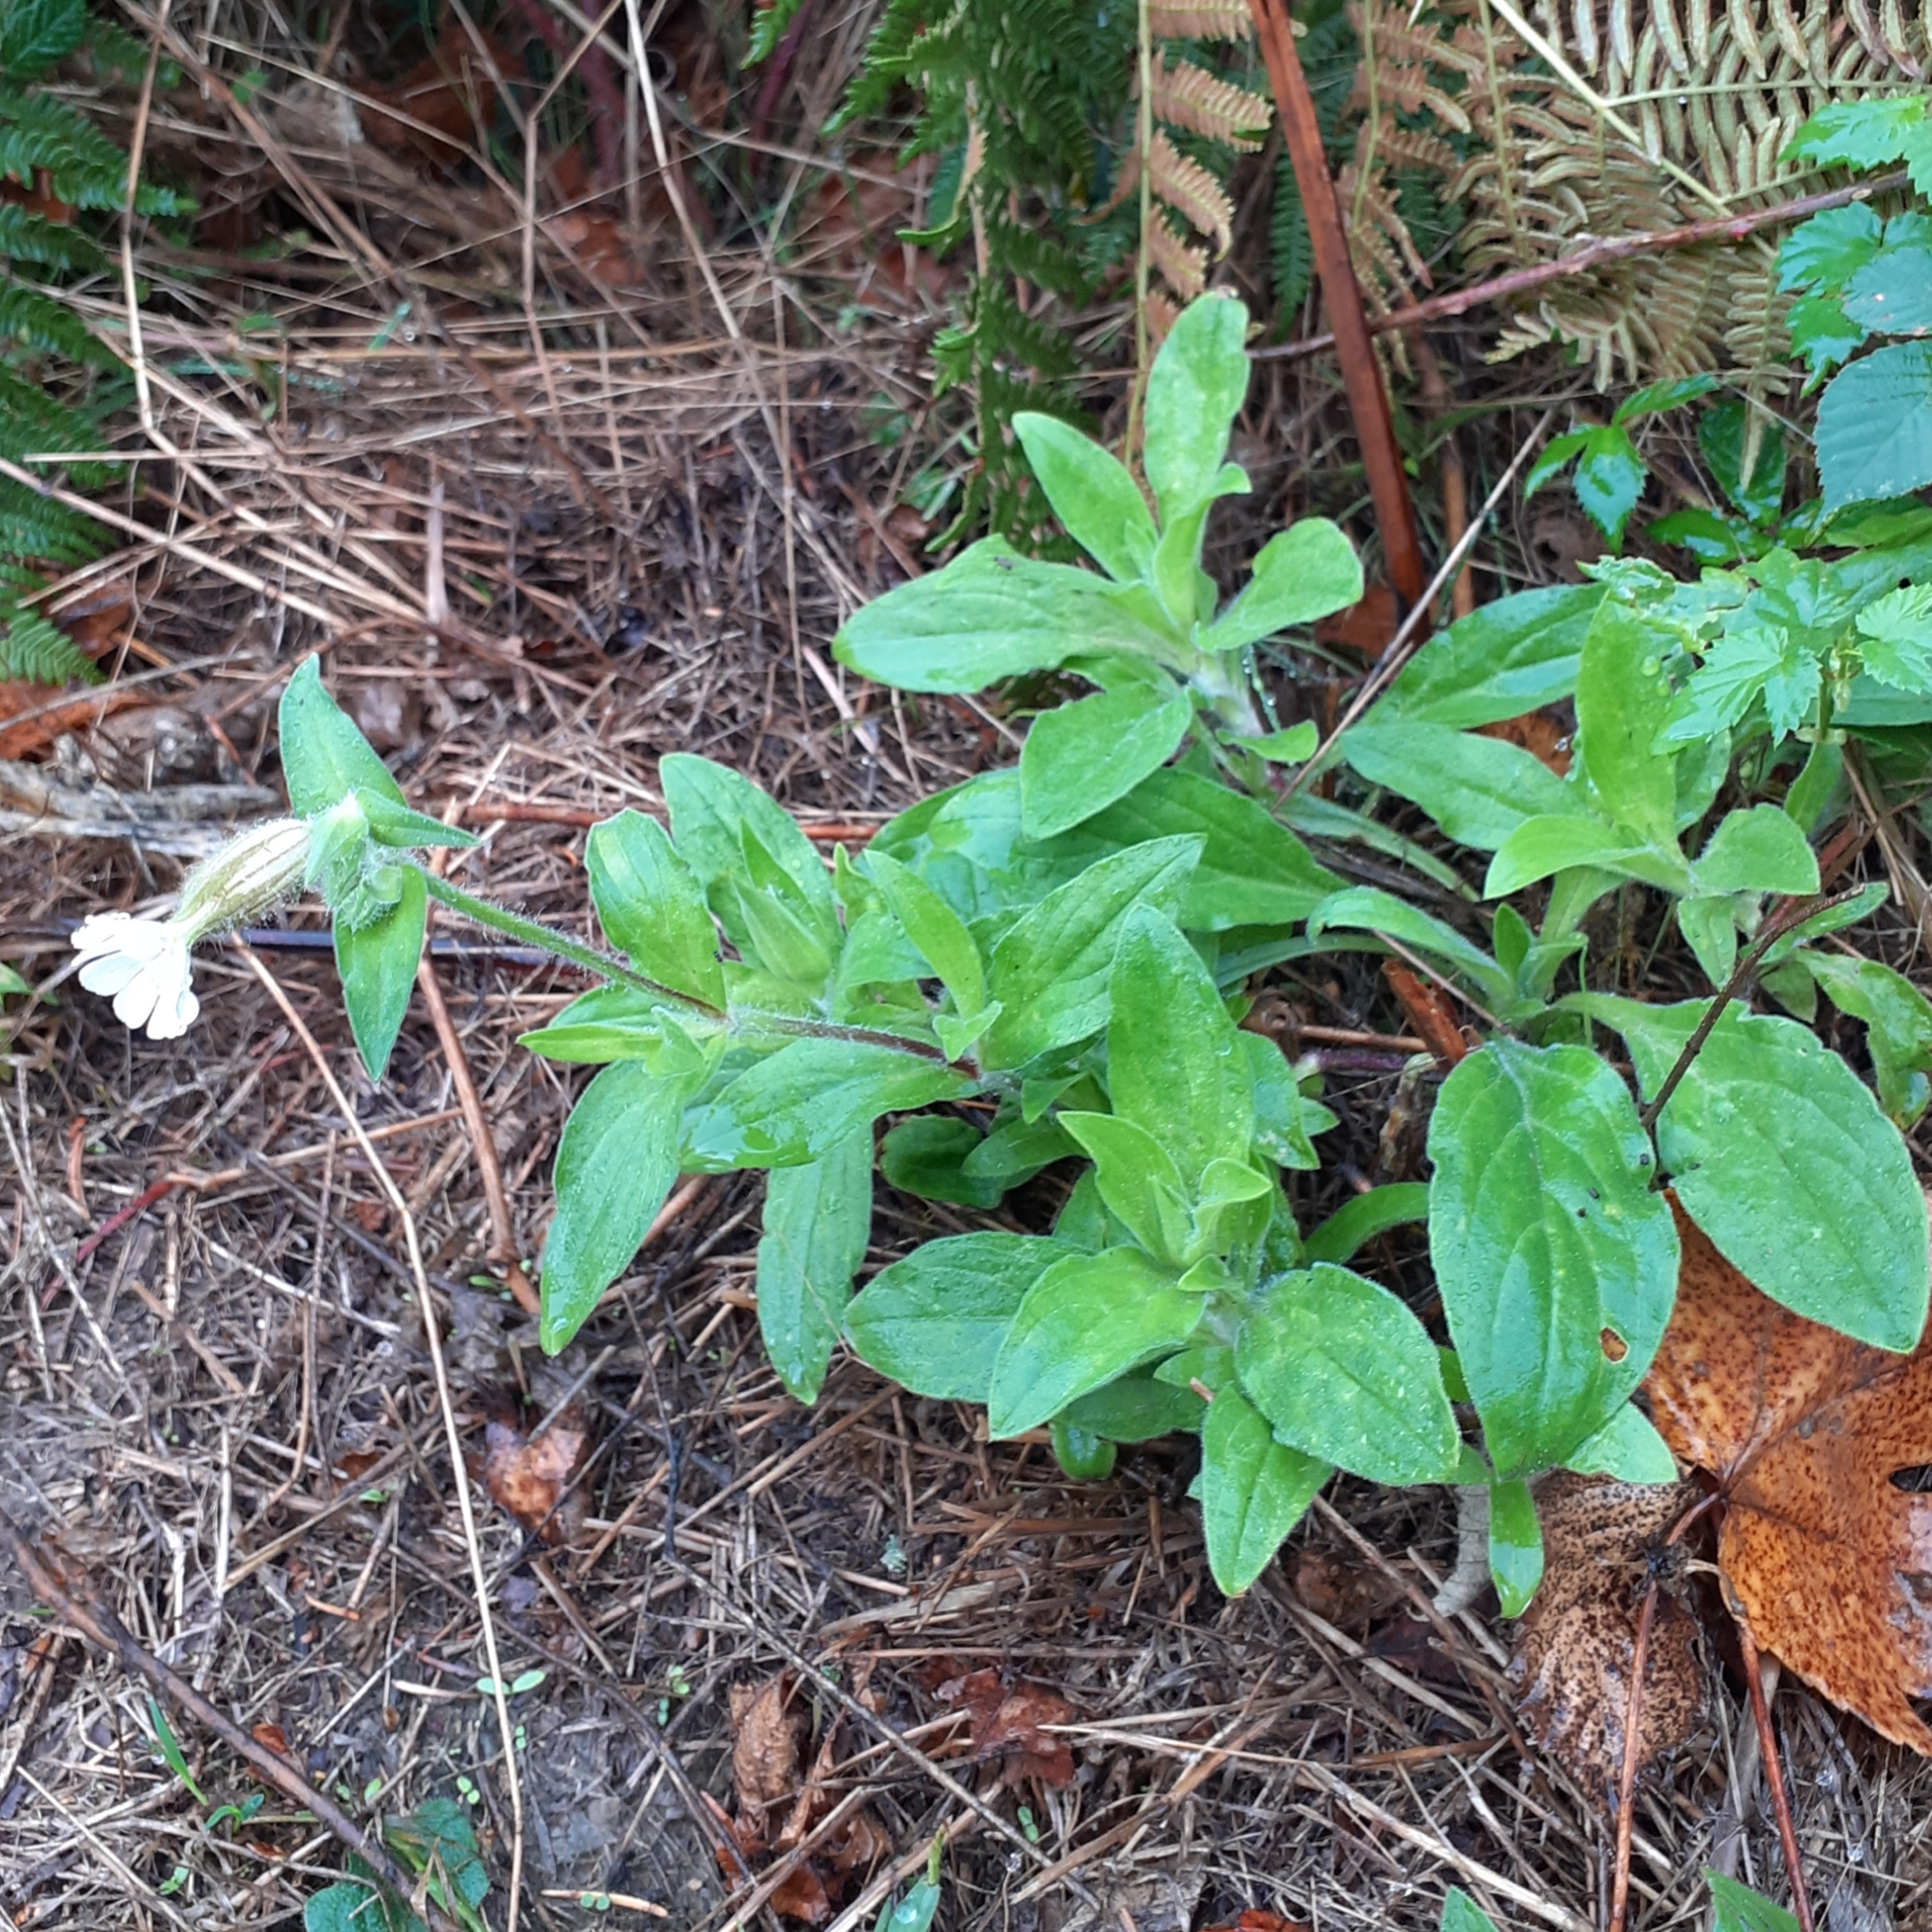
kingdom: Plantae
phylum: Tracheophyta
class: Magnoliopsida
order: Caryophyllales
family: Caryophyllaceae
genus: Silene
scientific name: Silene latifolia
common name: White campion
